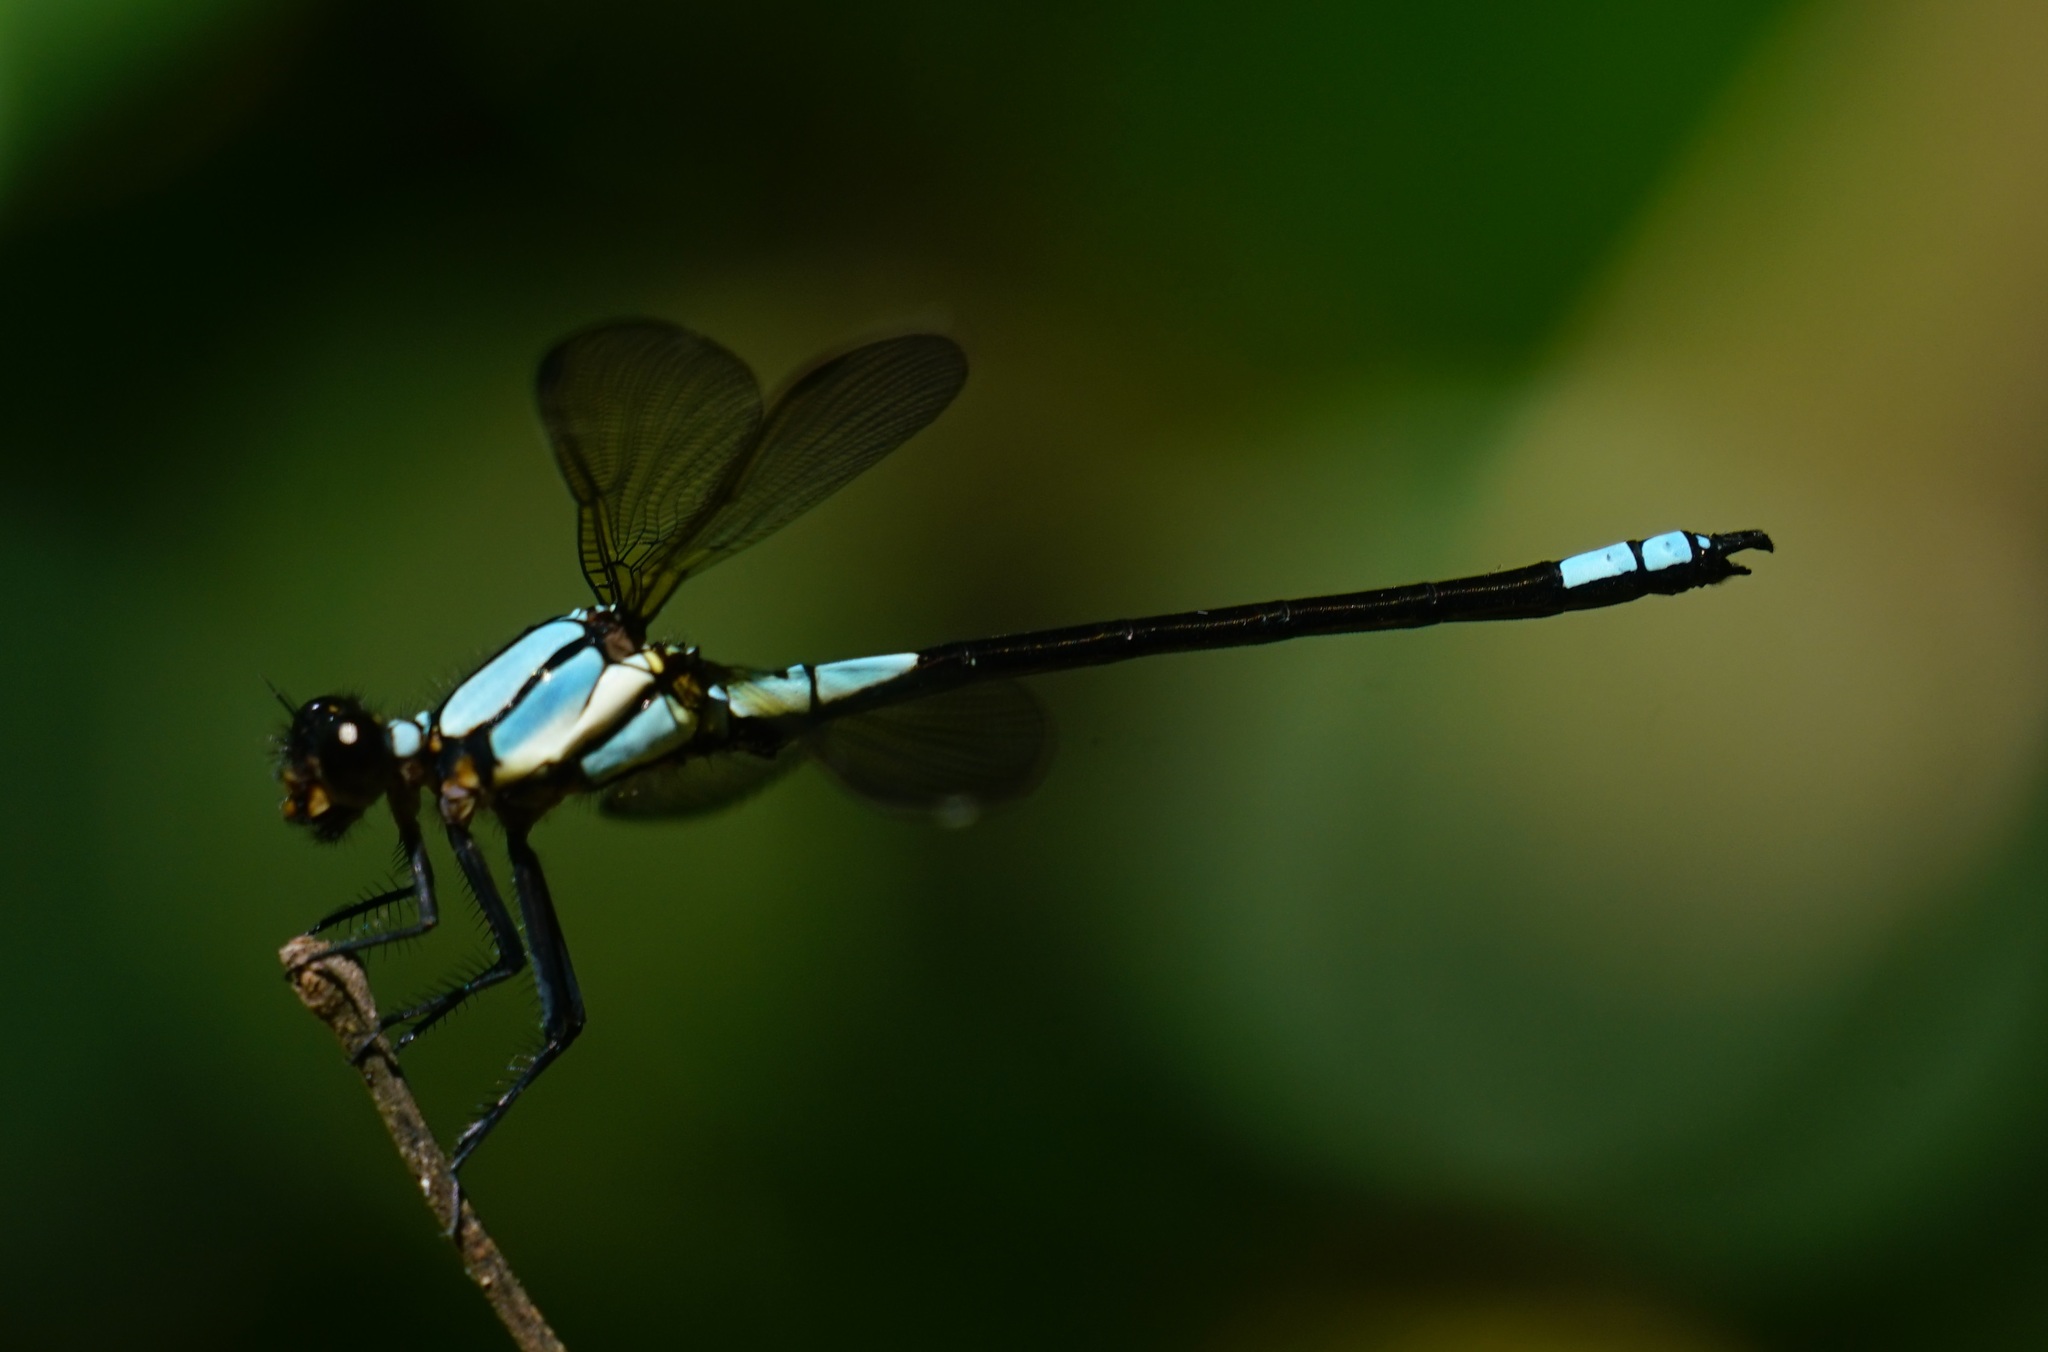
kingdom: Animalia
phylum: Arthropoda
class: Insecta
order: Odonata
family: Lestoideidae
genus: Diphlebia
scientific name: Diphlebia euphoeoides
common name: Tropical rockmaster
